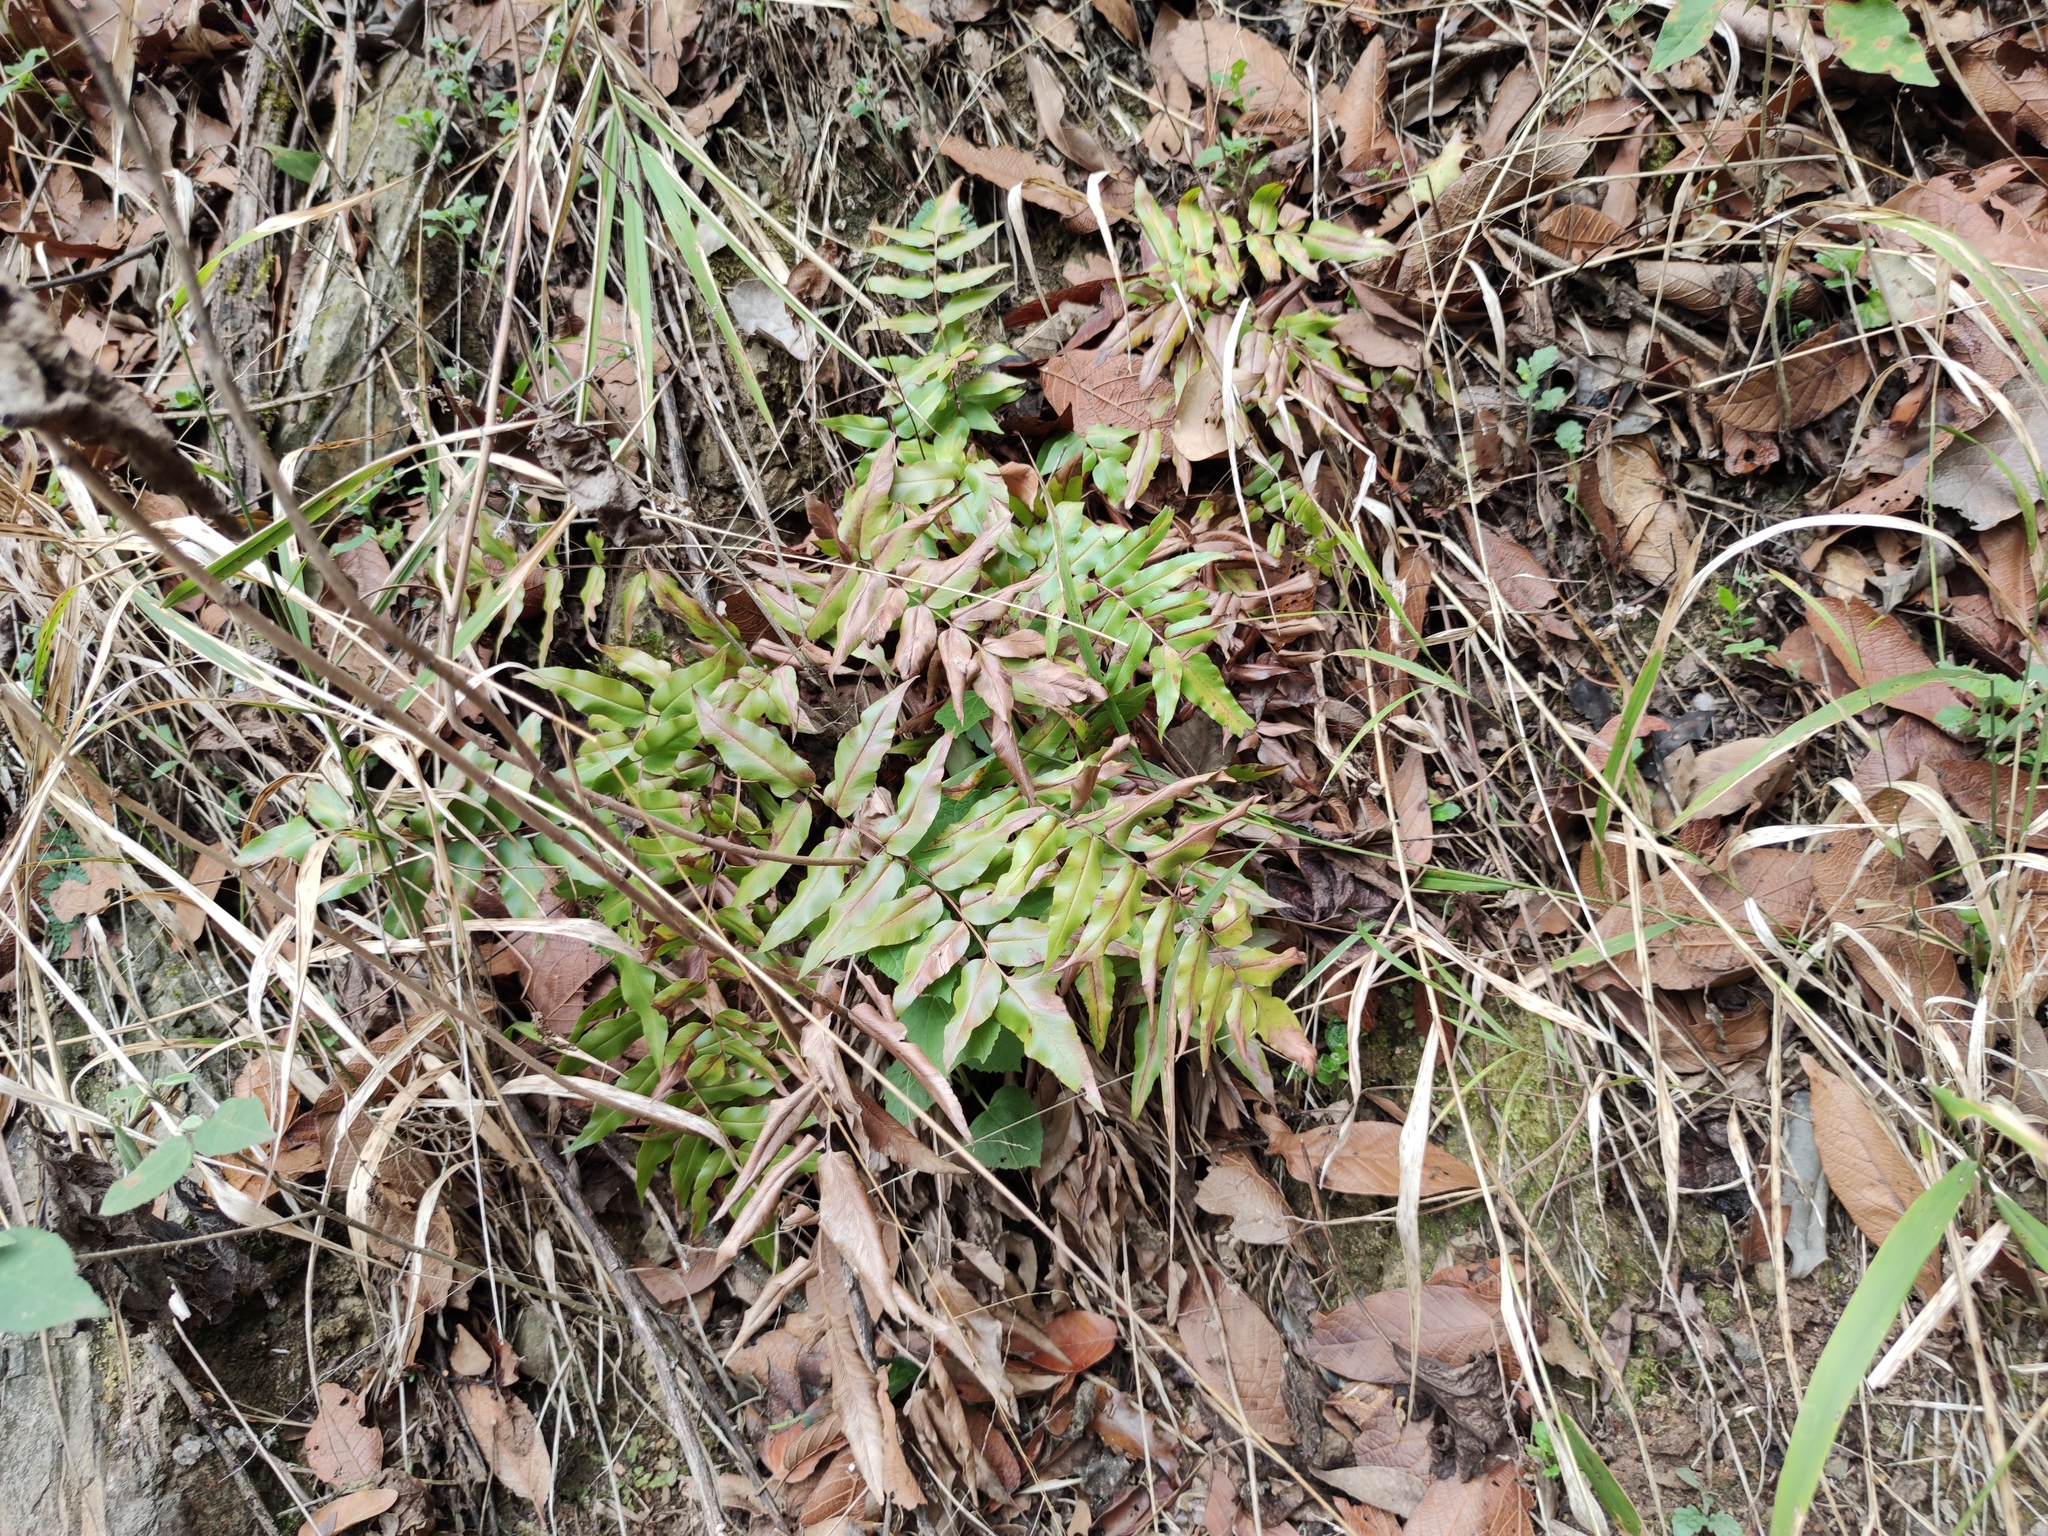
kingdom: Plantae
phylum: Tracheophyta
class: Polypodiopsida
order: Schizaeales
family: Anemiaceae
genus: Anemia
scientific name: Anemia mexicana
